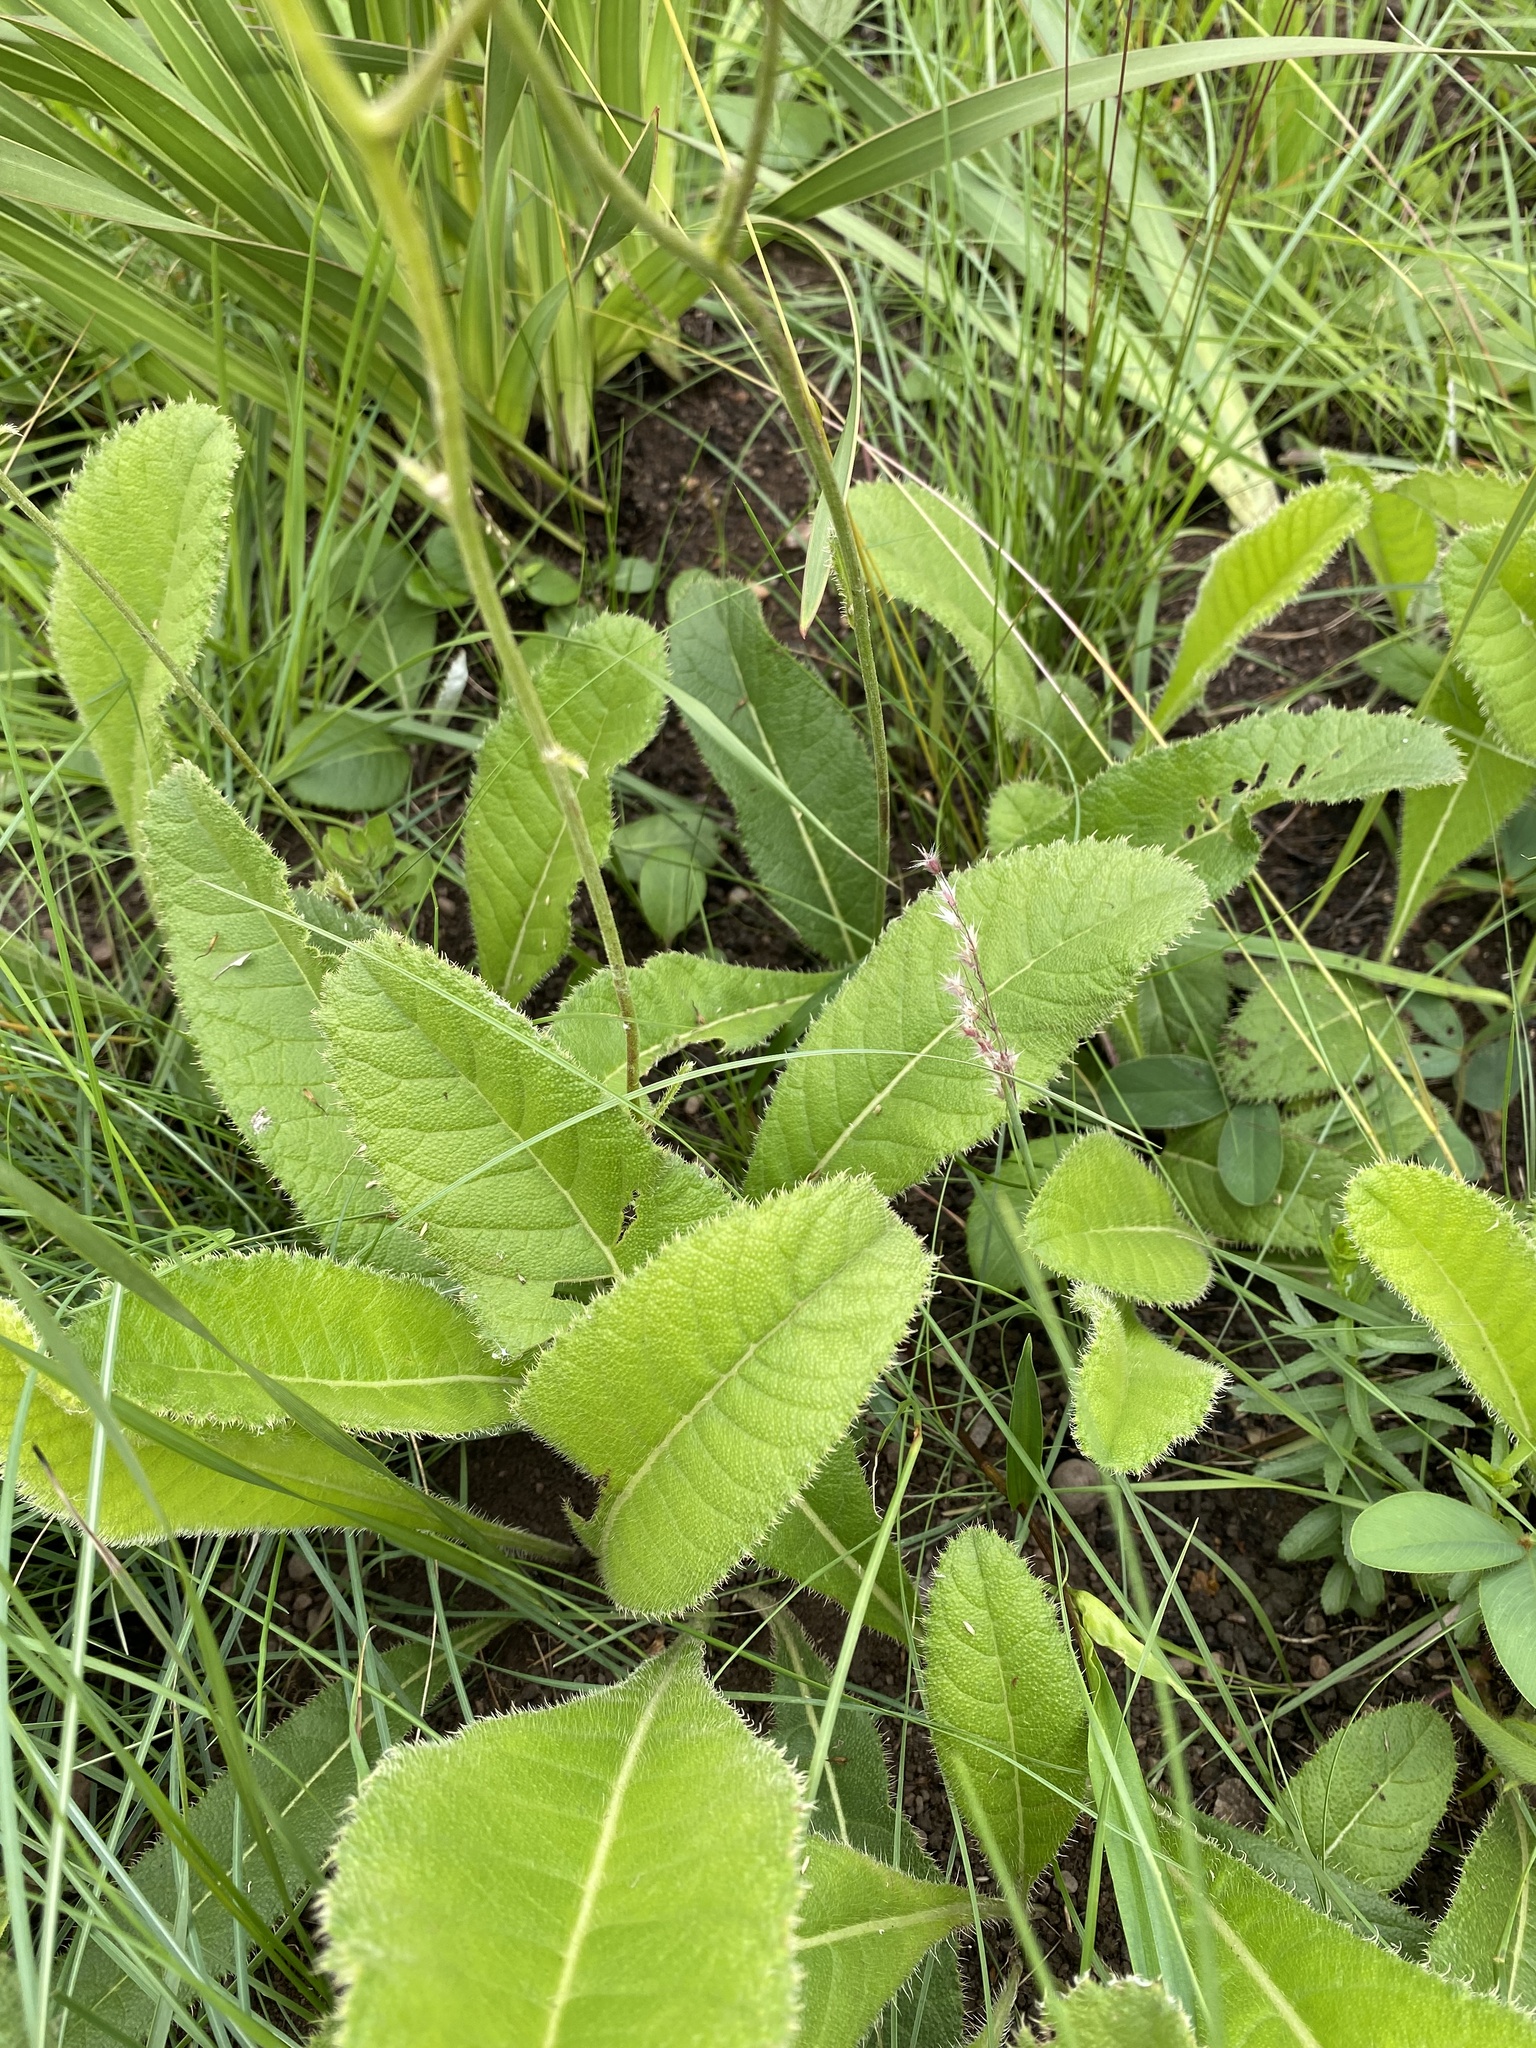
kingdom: Plantae
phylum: Tracheophyta
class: Magnoliopsida
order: Asterales
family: Asteraceae
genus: Berkheya
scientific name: Berkheya setifera
